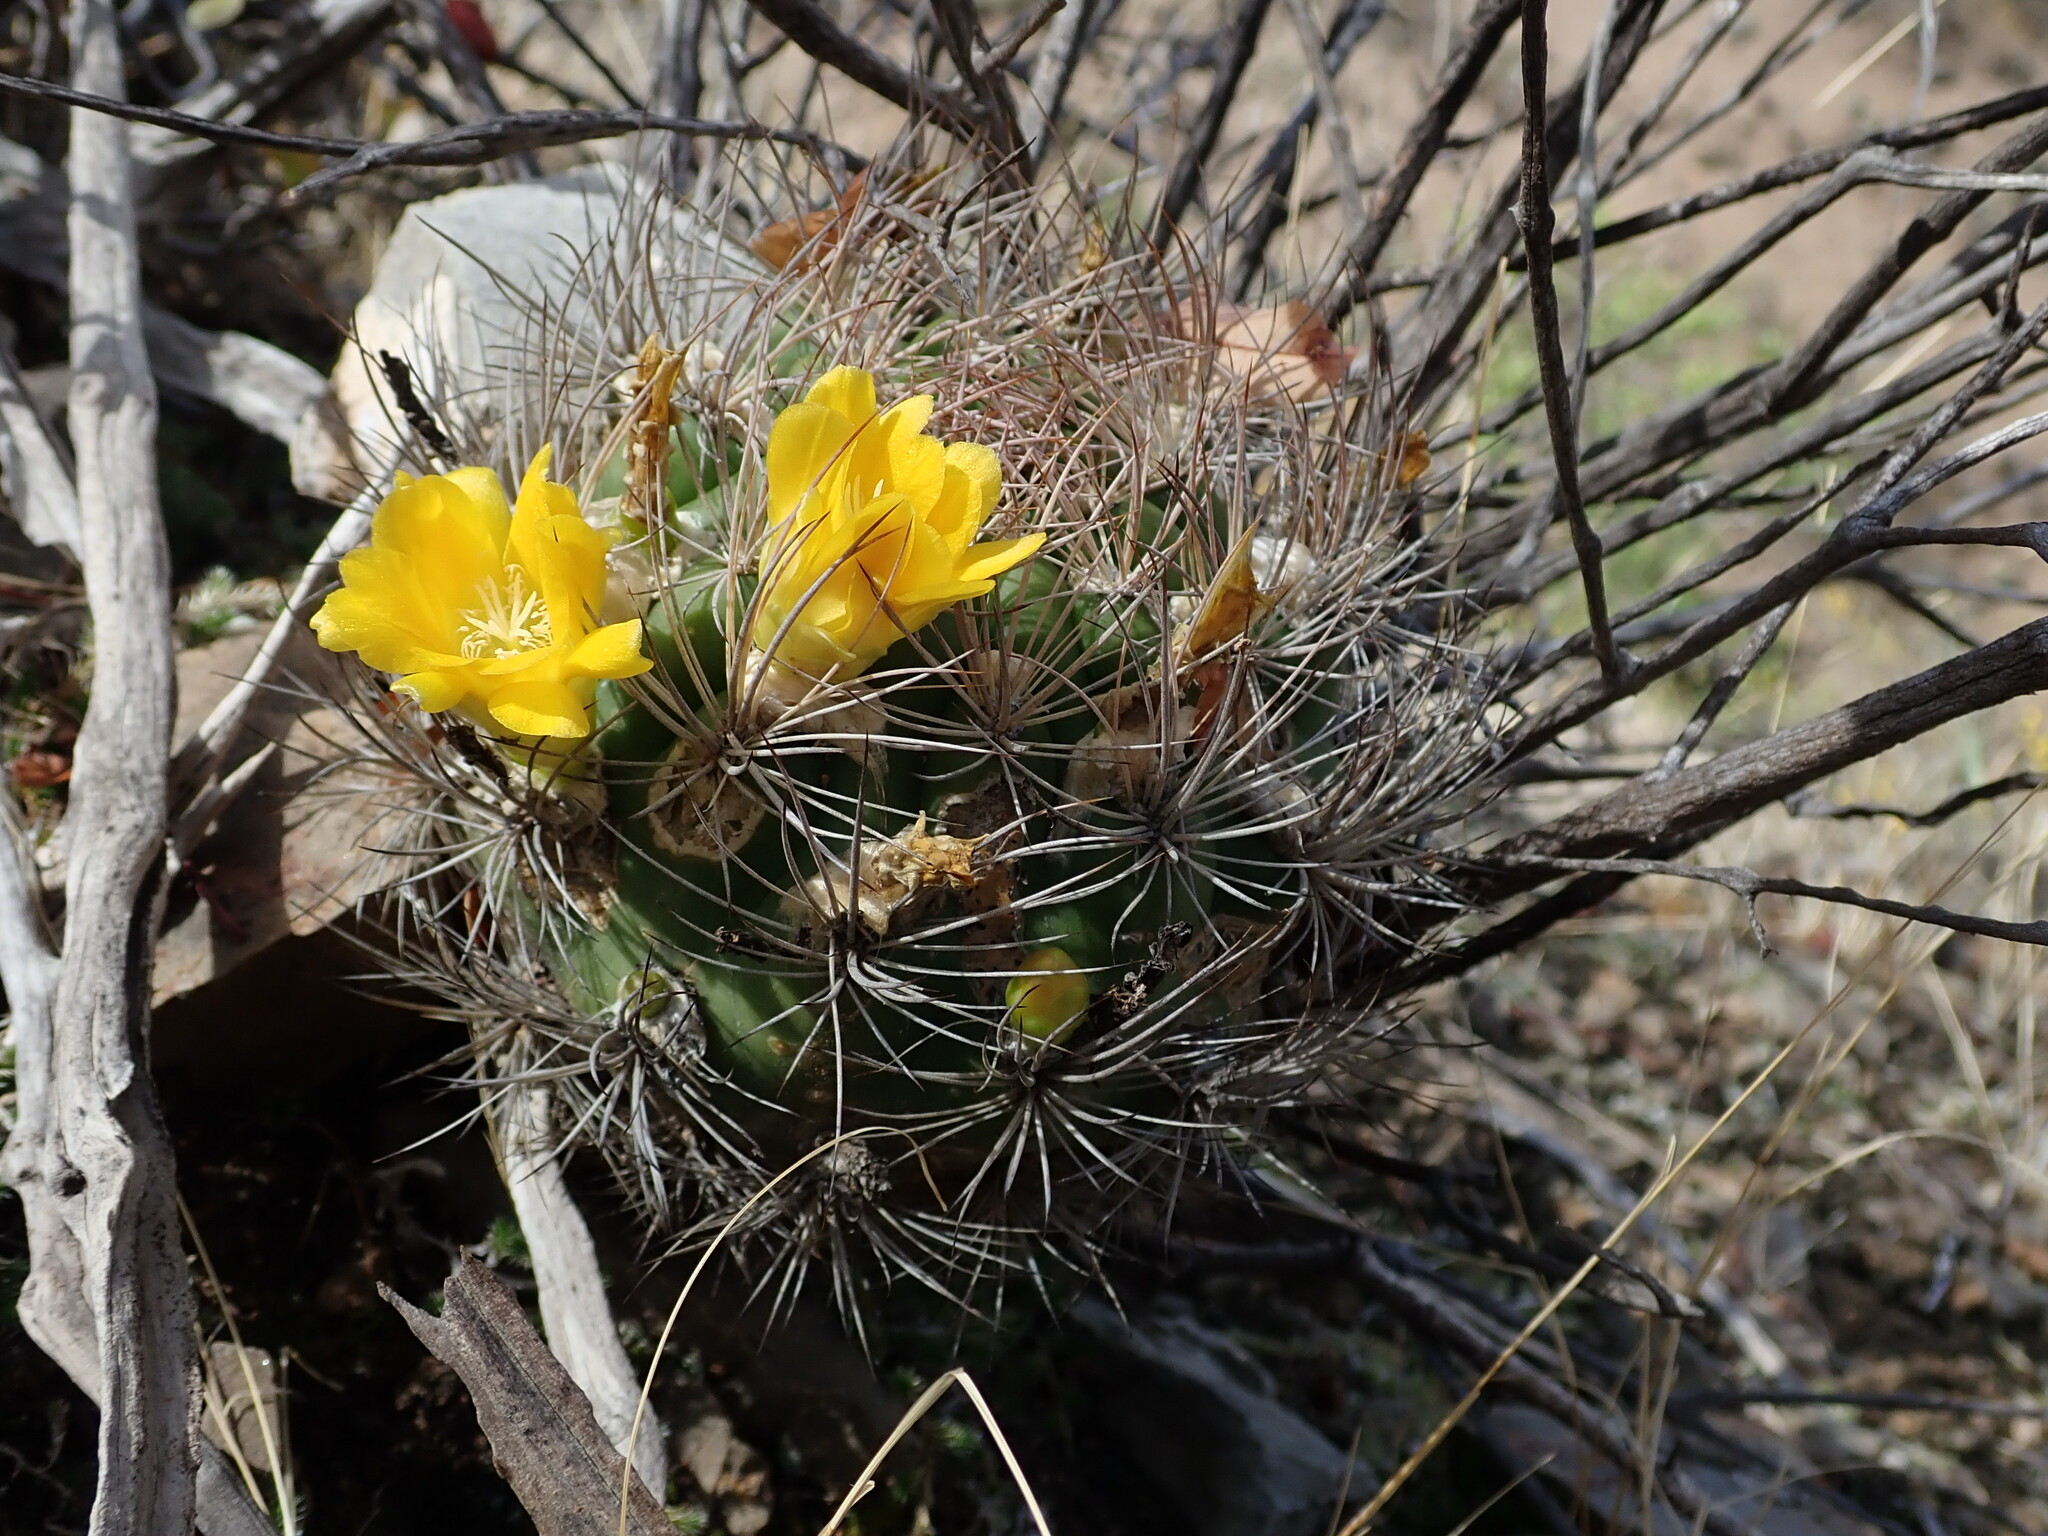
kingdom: Plantae
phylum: Tracheophyta
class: Magnoliopsida
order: Caryophyllales
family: Cactaceae
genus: Weingartia
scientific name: Weingartia lanata
